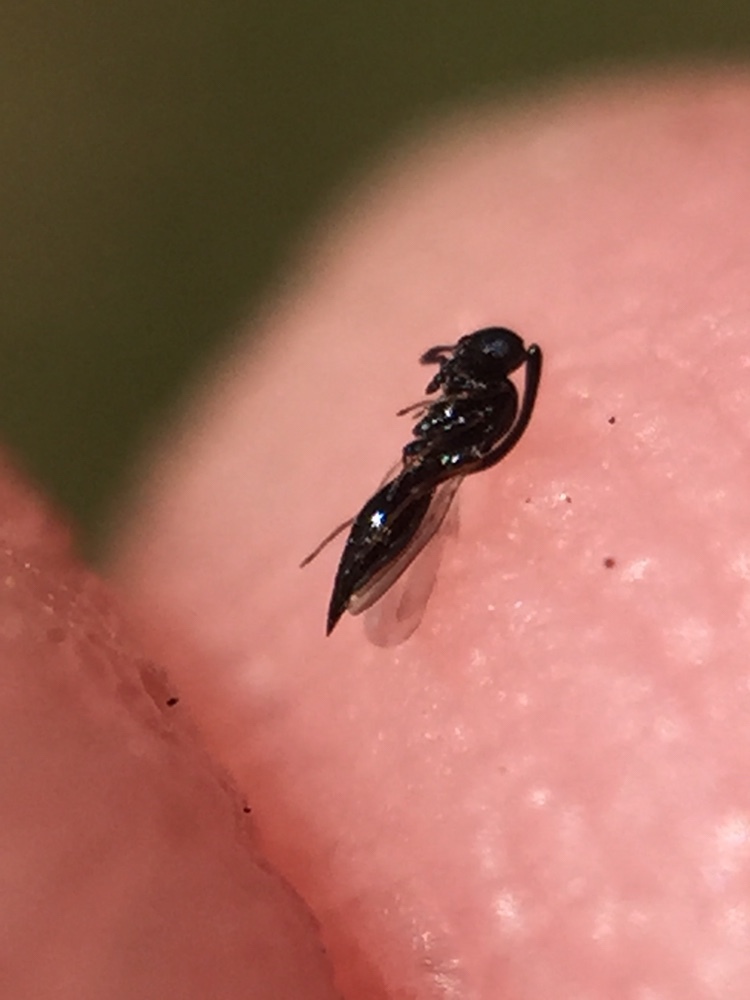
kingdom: Animalia
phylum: Arthropoda
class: Insecta
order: Hymenoptera
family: Platygastridae
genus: Inostemma
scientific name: Inostemma boscii
